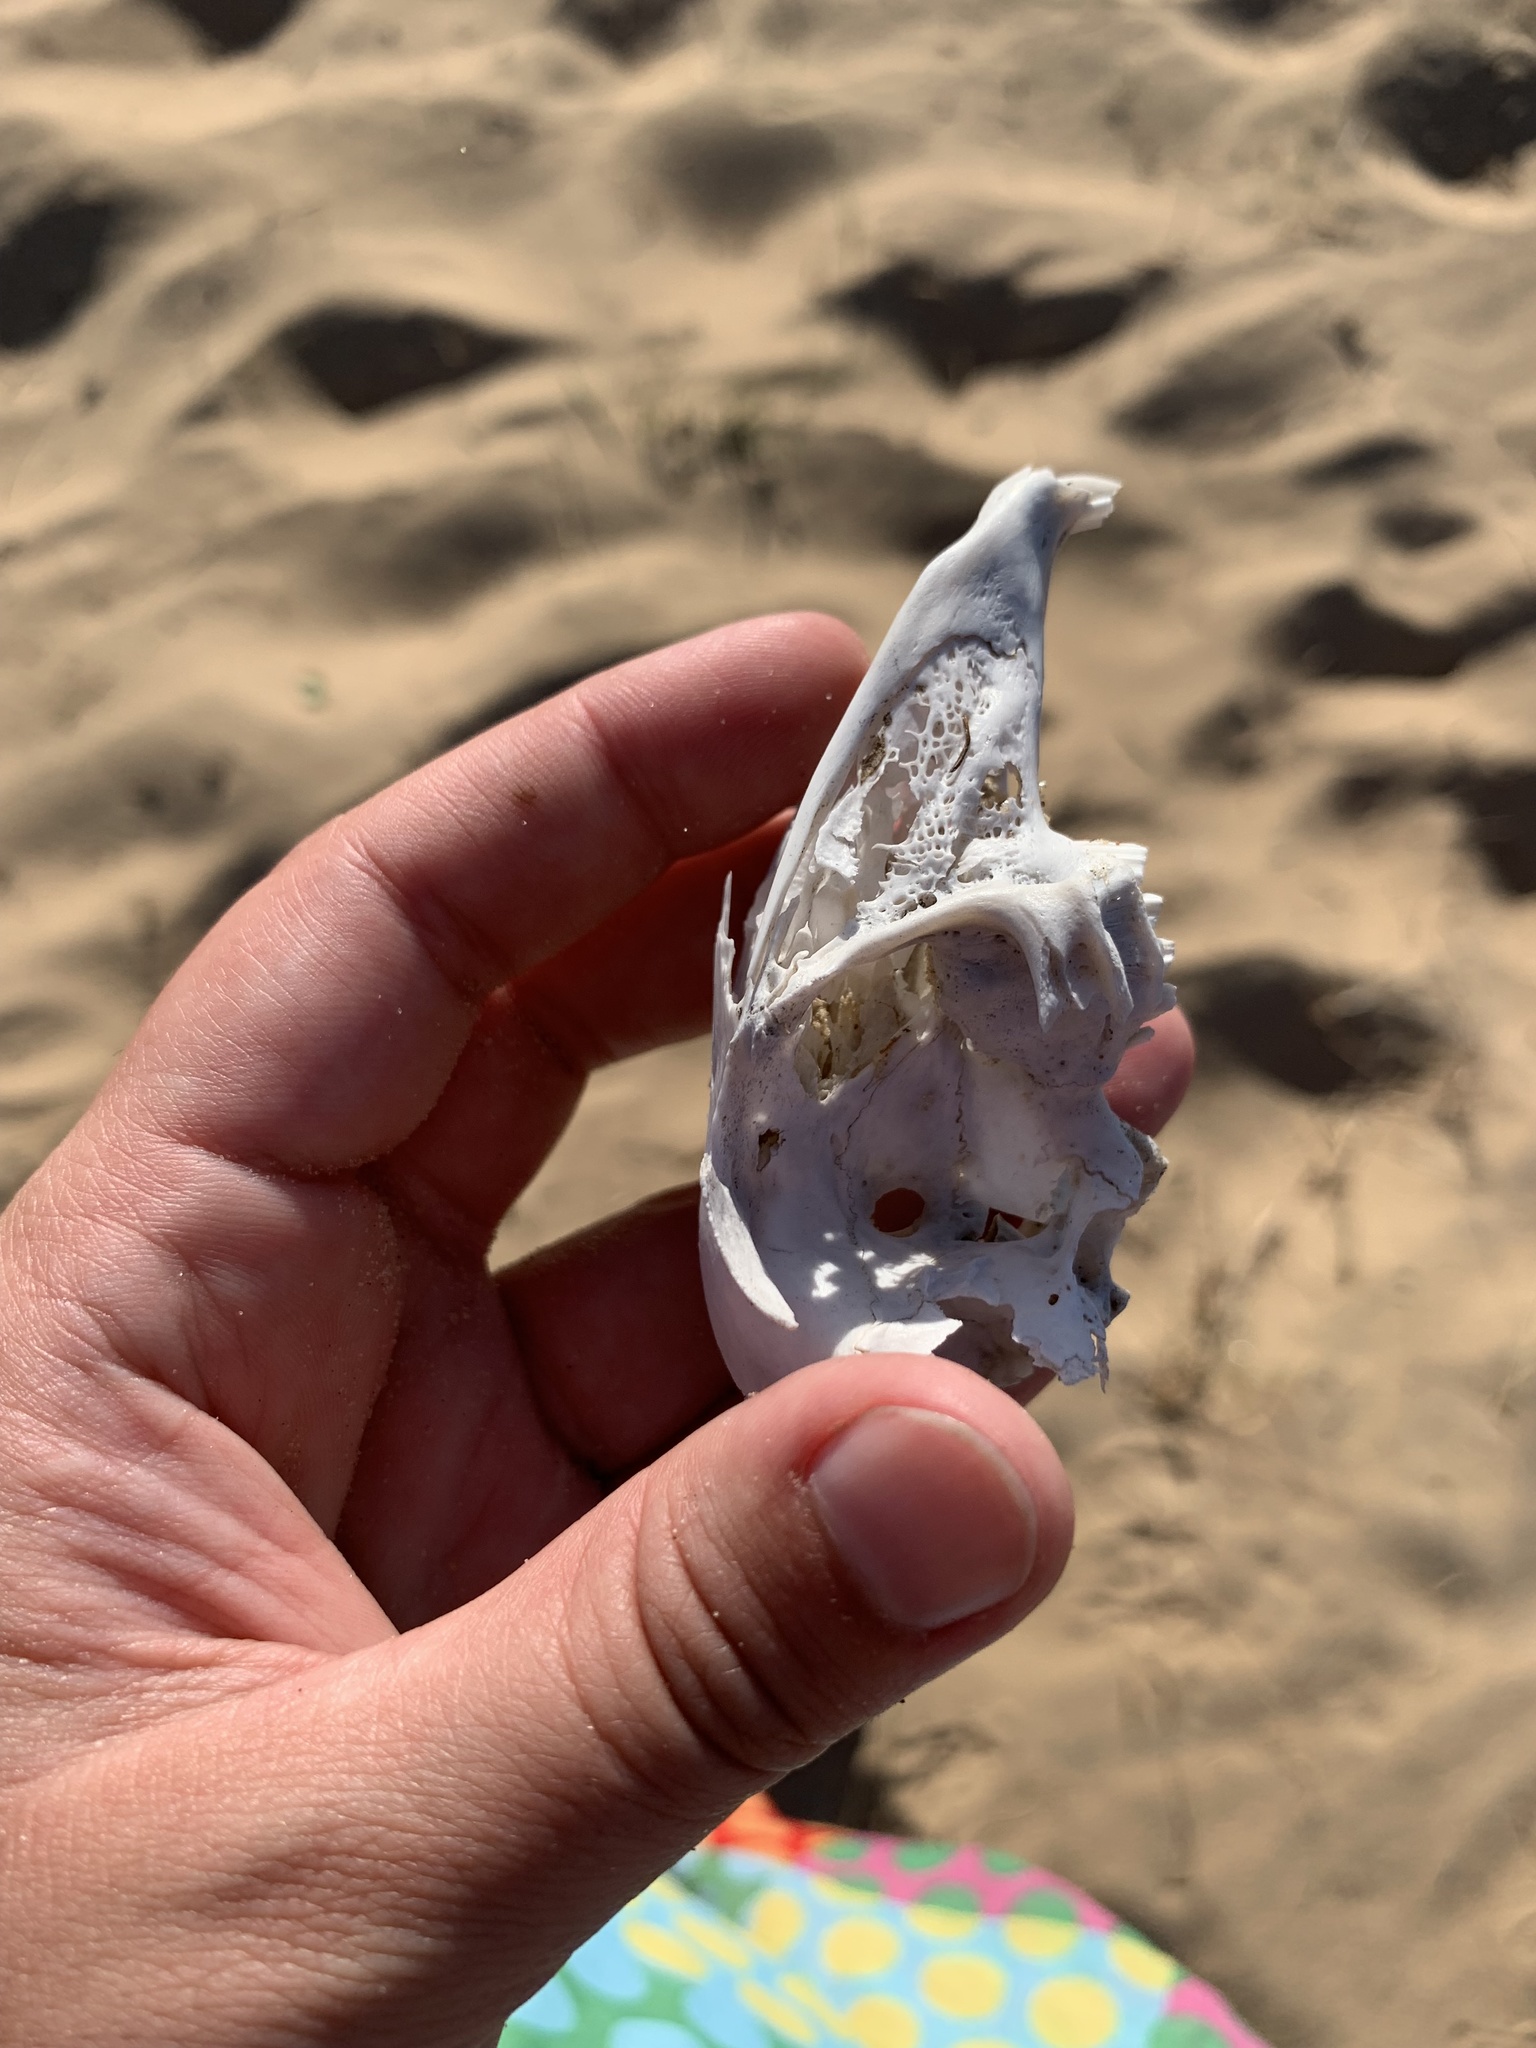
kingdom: Animalia
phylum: Chordata
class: Mammalia
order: Lagomorpha
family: Leporidae
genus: Lepus
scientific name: Lepus europaeus
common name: European hare
